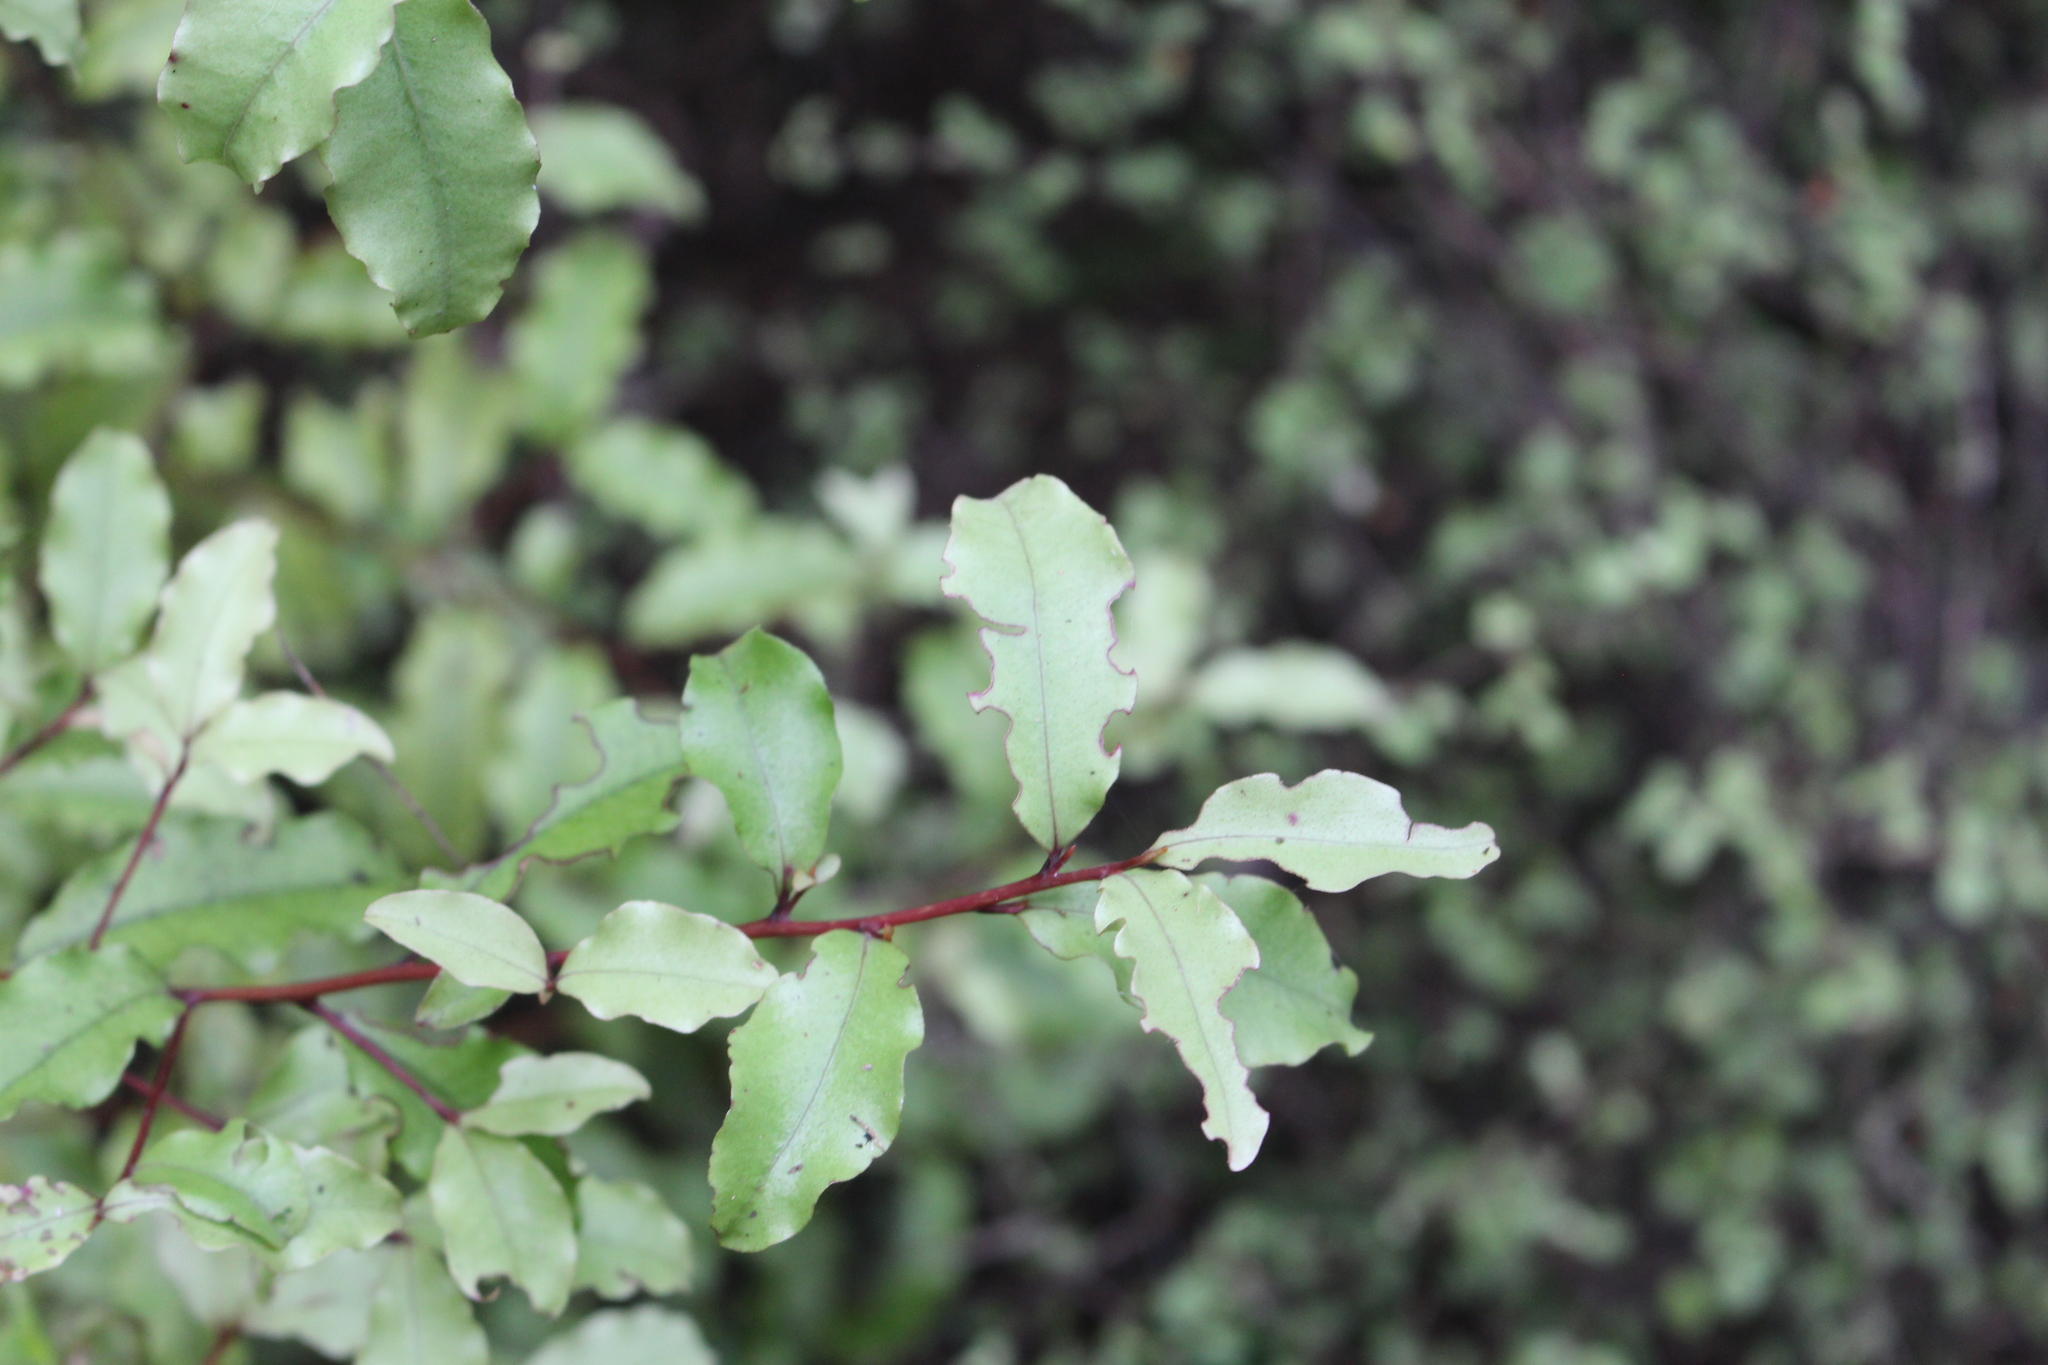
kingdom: Plantae
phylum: Tracheophyta
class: Magnoliopsida
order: Ericales
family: Primulaceae
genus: Myrsine
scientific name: Myrsine australis
